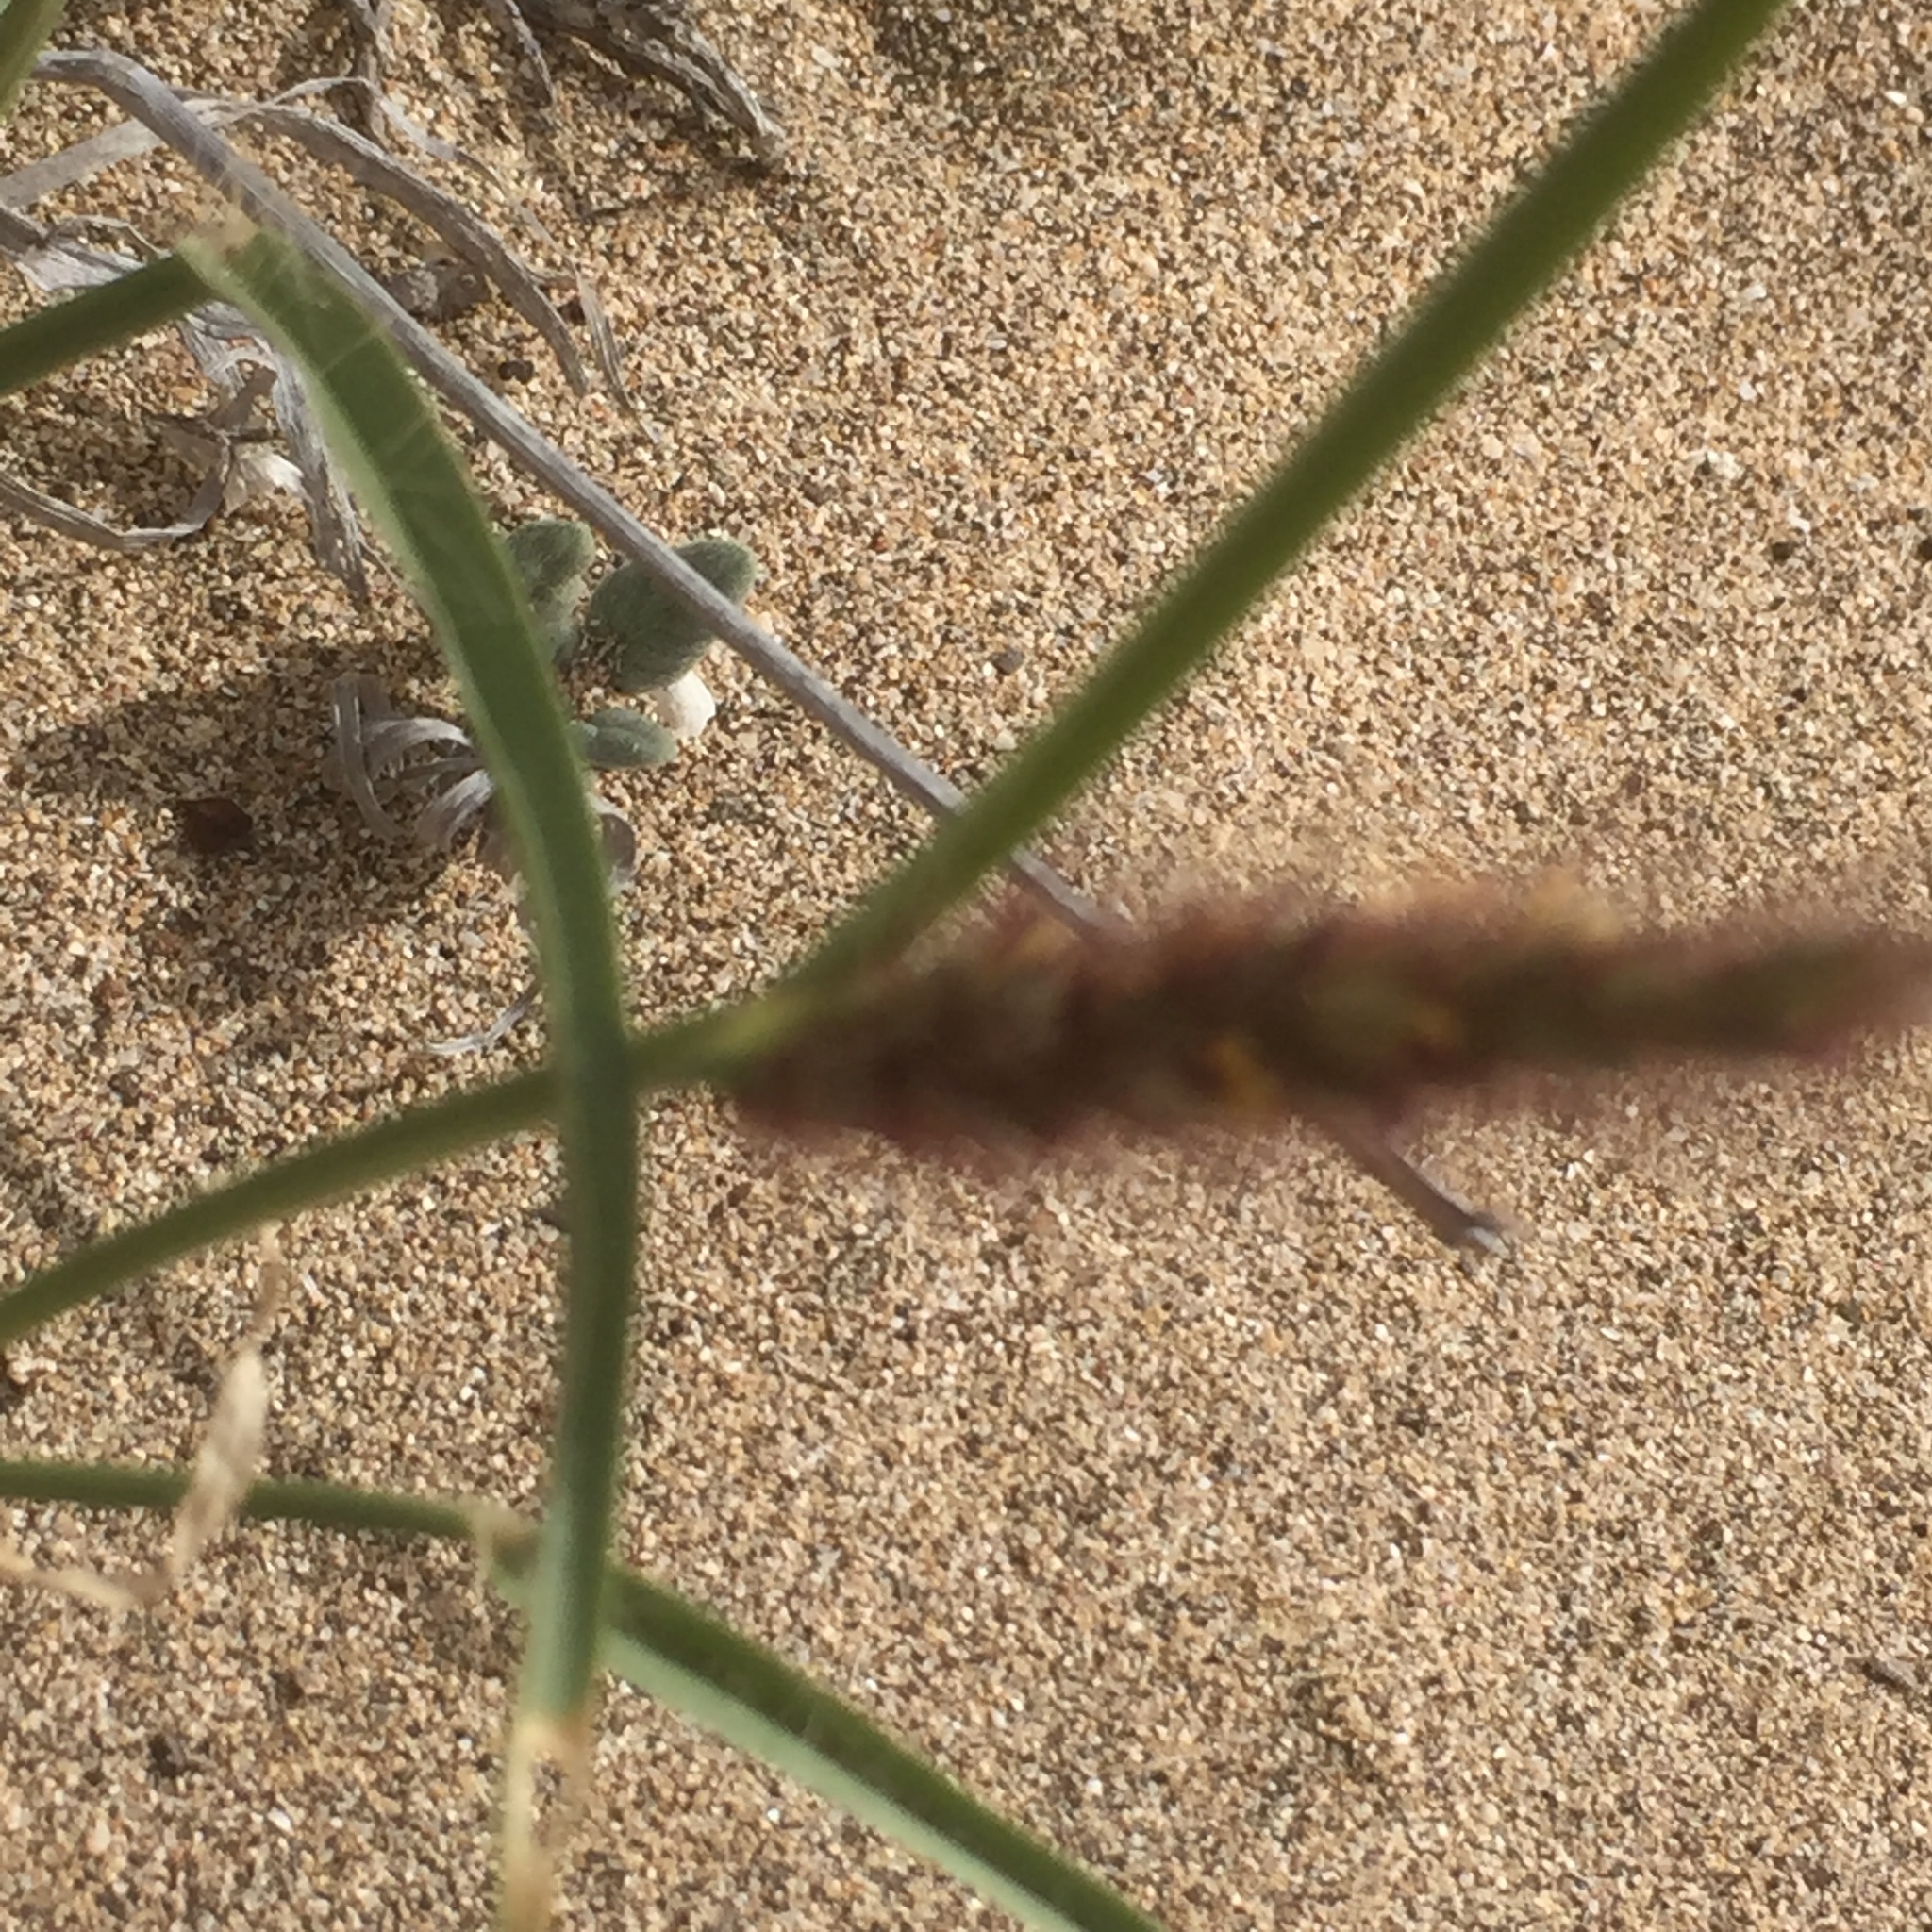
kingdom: Plantae
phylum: Tracheophyta
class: Liliopsida
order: Poales
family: Poaceae
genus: Cenchrus
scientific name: Cenchrus ciliaris
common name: Buffelgrass
